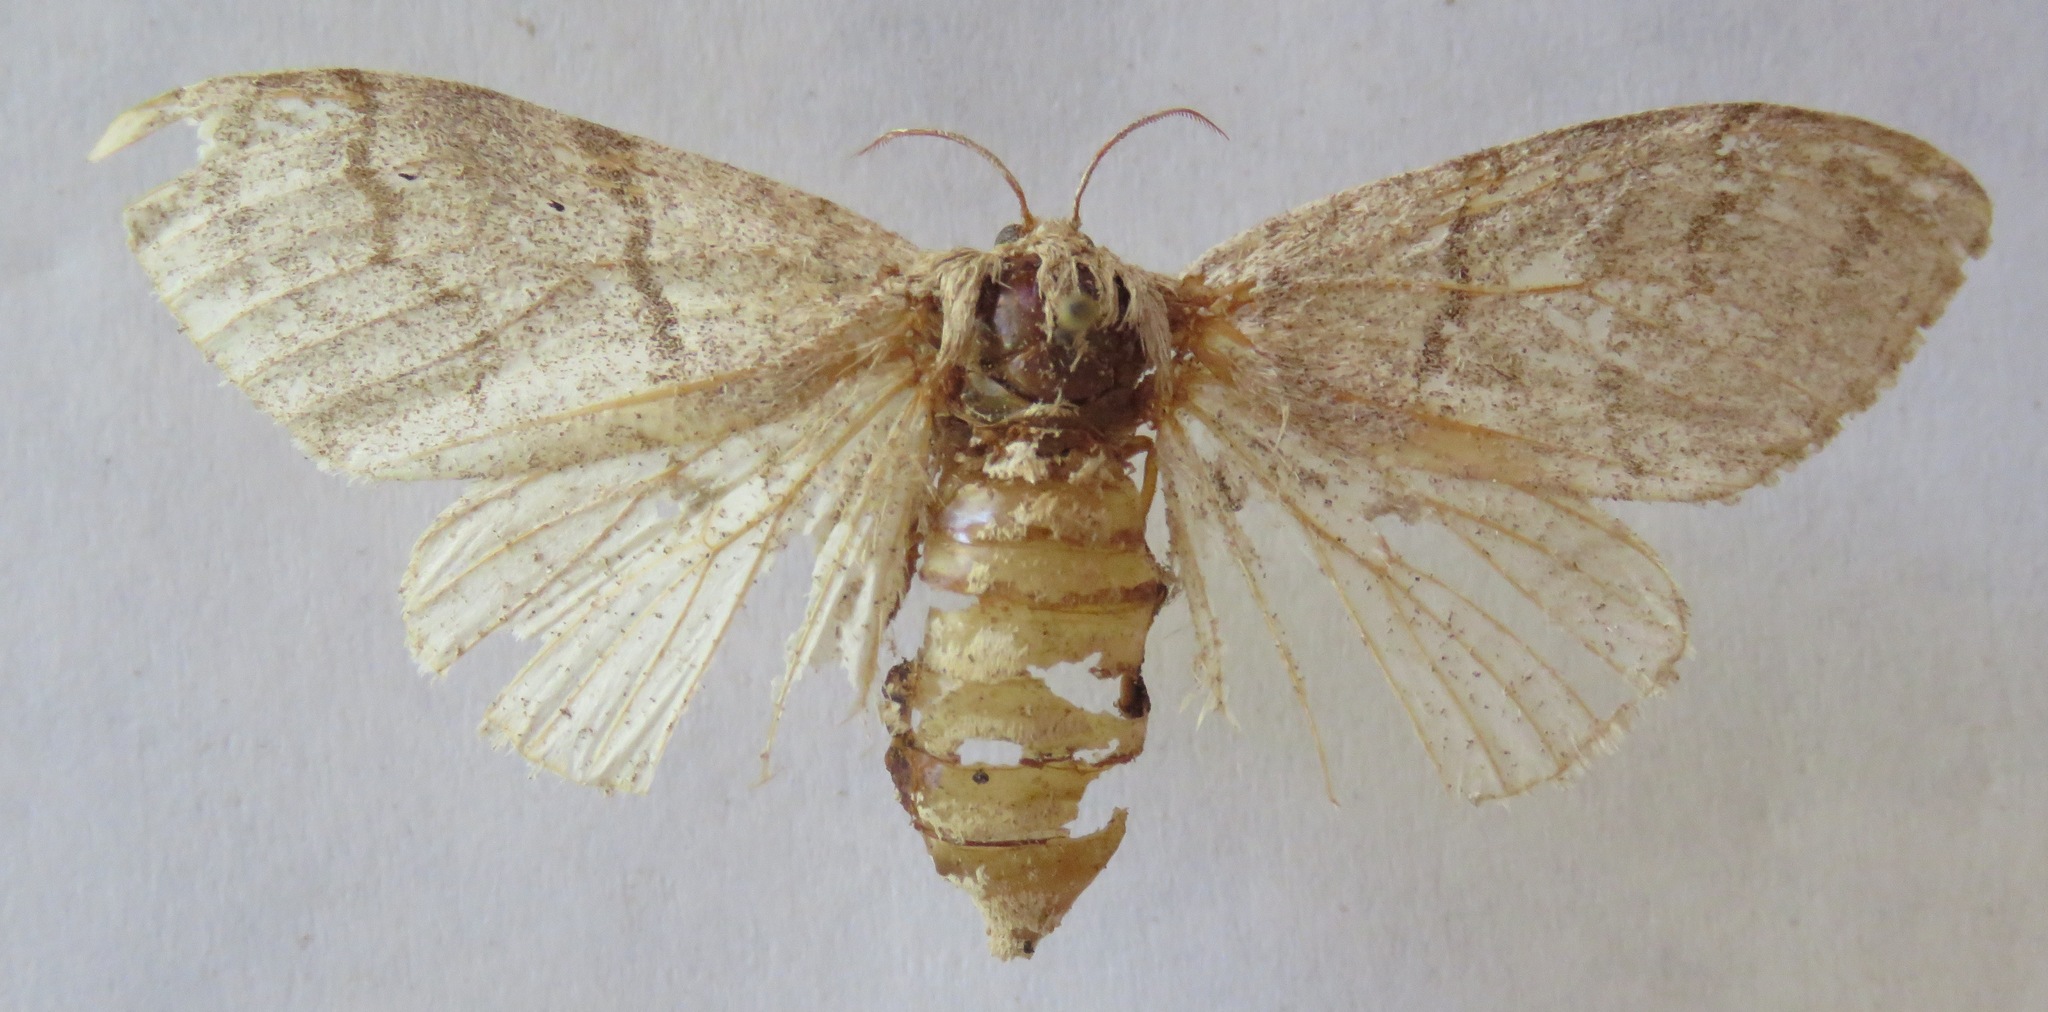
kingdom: Animalia
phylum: Arthropoda
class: Insecta
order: Lepidoptera
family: Erebidae
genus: Calliteara
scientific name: Calliteara pudibunda
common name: Pale tussock
